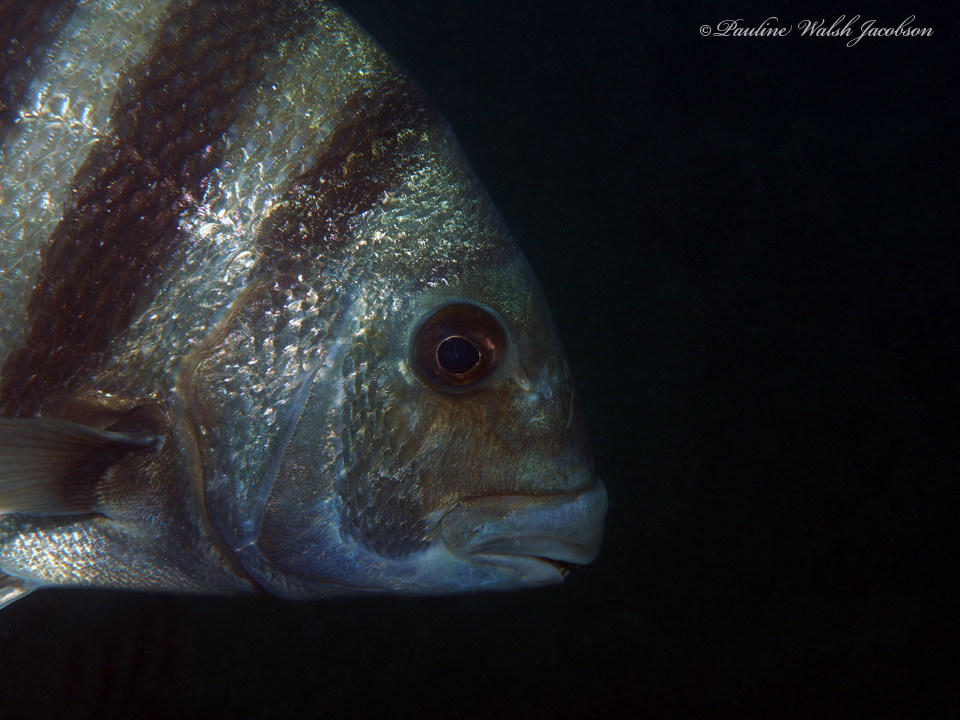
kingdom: Animalia
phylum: Chordata
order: Perciformes
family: Sparidae
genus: Archosargus
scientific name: Archosargus probatocephalus
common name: Sheepshead
